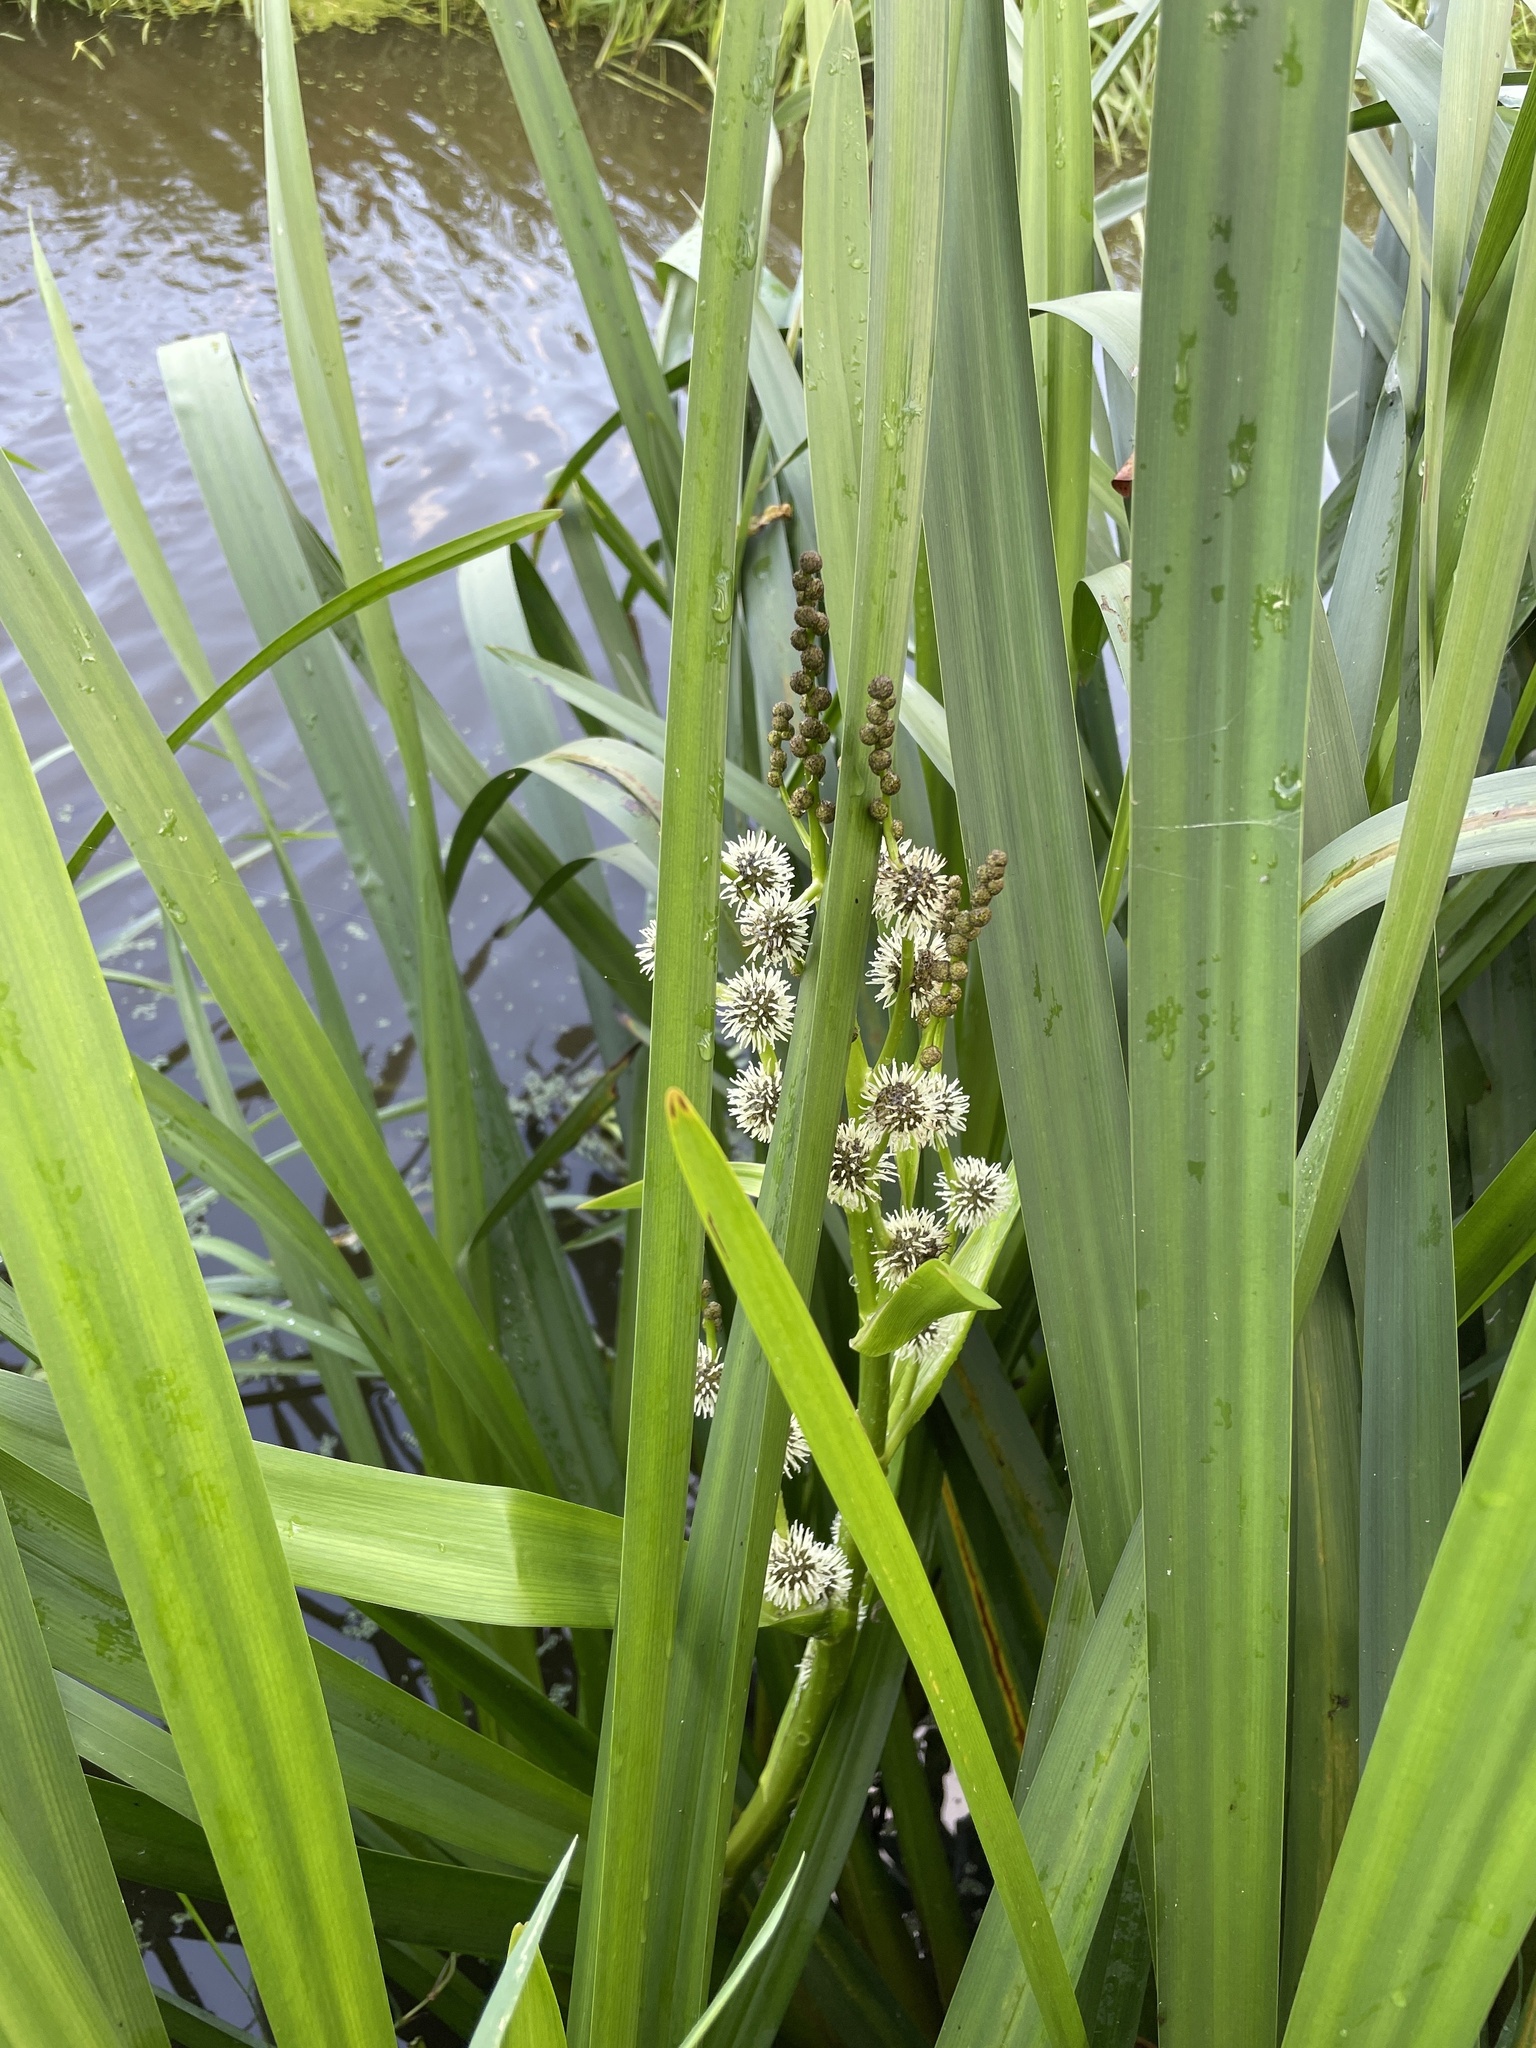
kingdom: Plantae
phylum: Tracheophyta
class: Liliopsida
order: Poales
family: Typhaceae
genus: Sparganium
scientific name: Sparganium erectum
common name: Branched bur-reed
